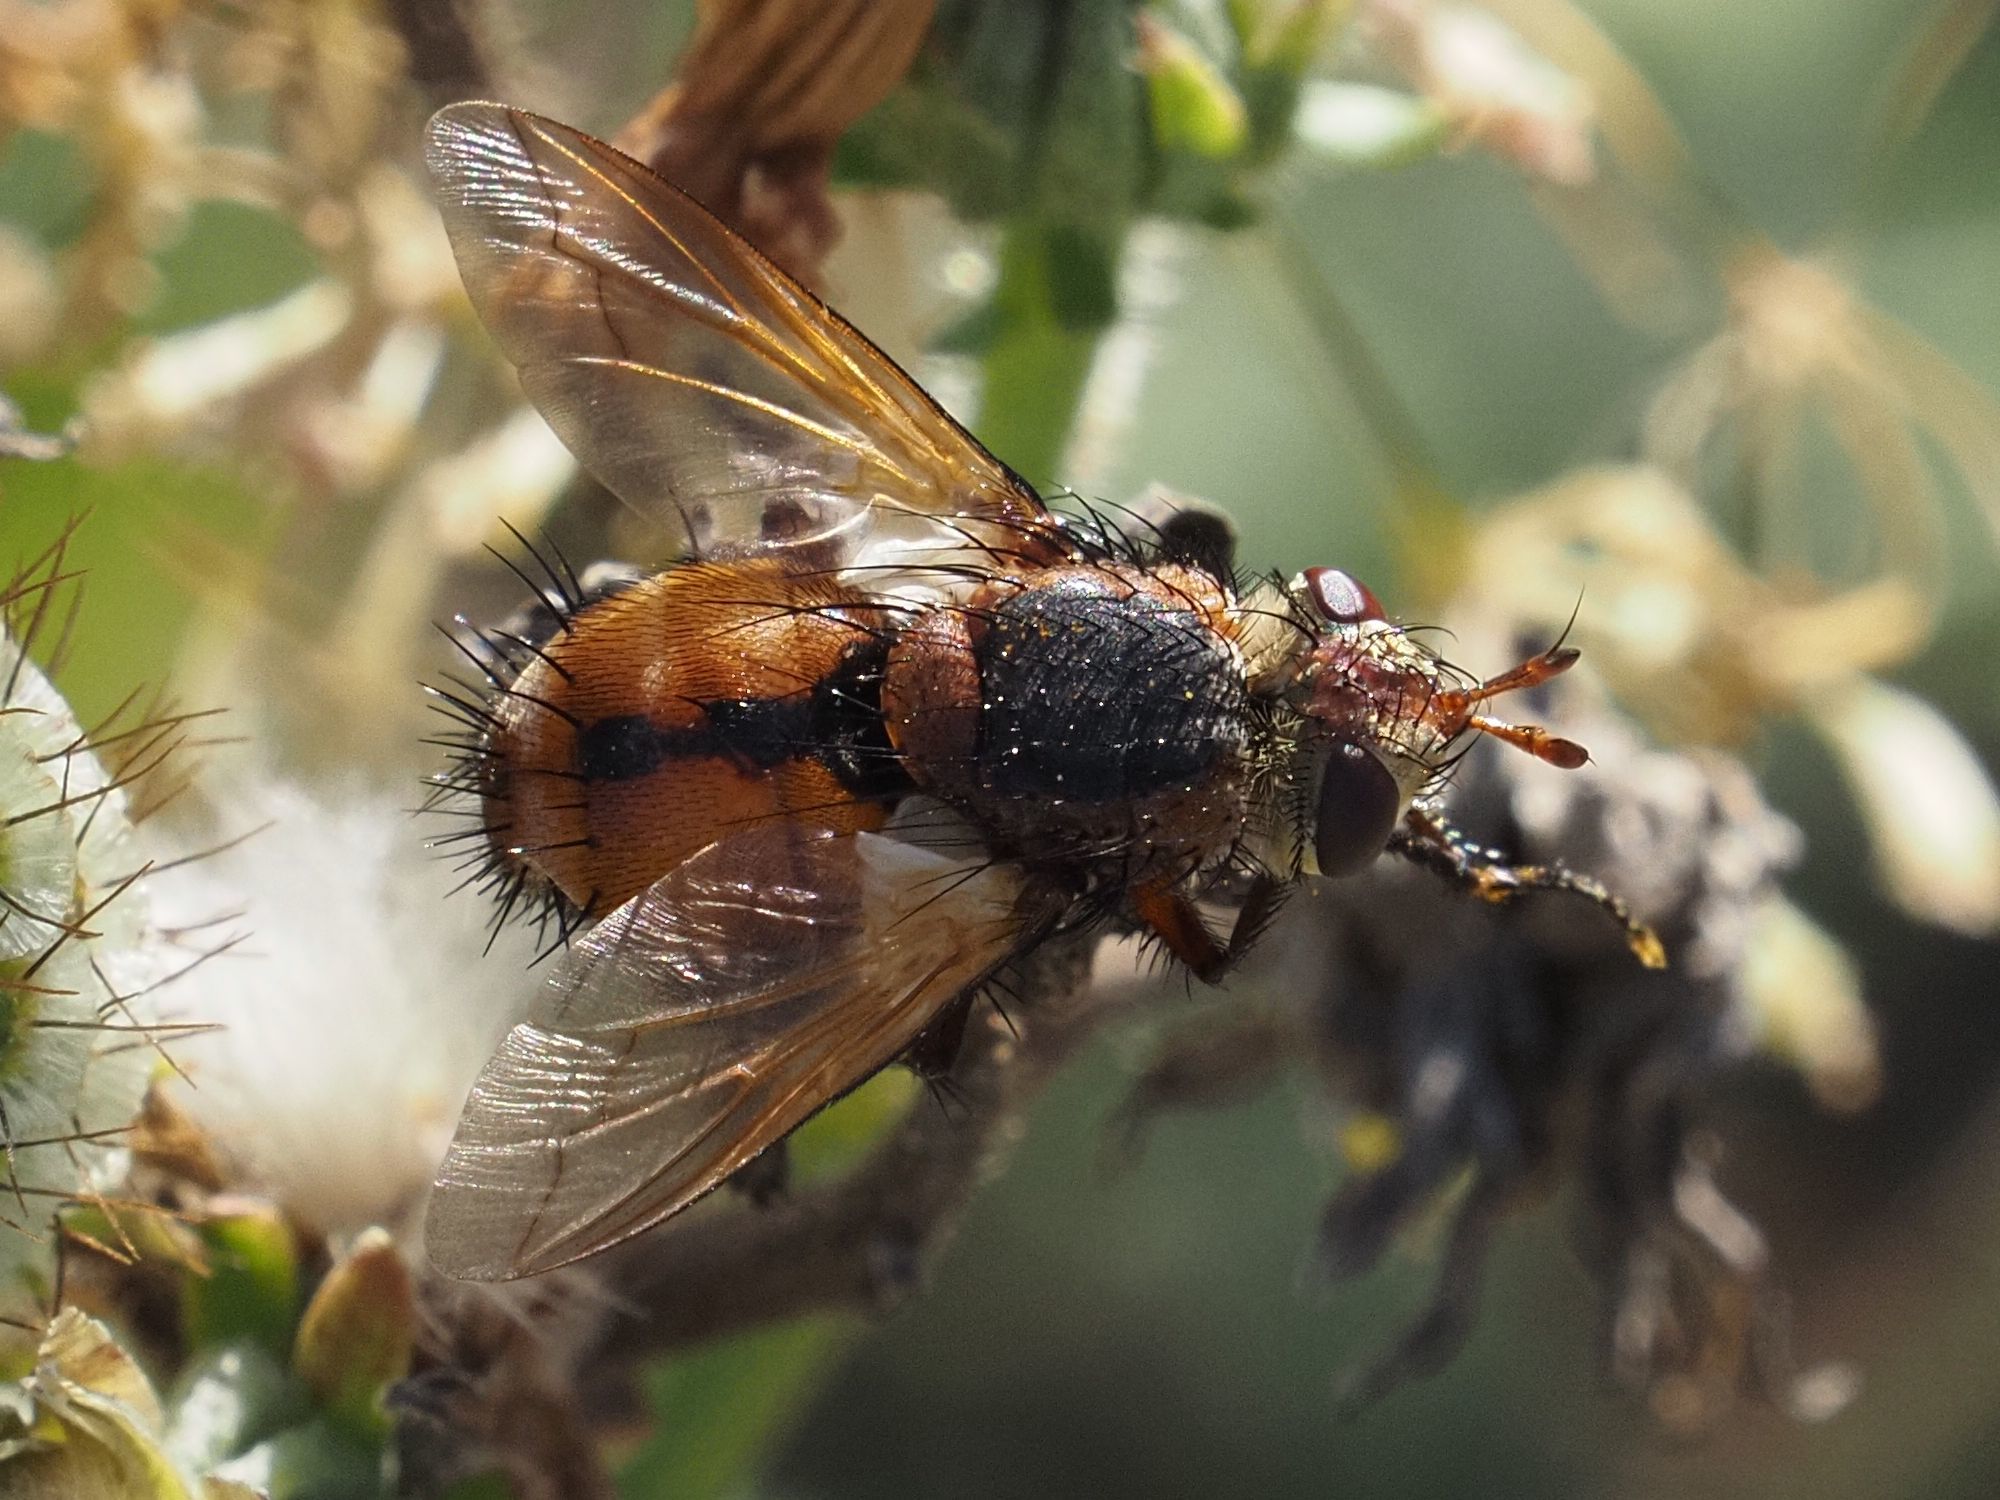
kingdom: Animalia
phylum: Arthropoda
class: Insecta
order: Diptera
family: Tachinidae
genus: Tachina
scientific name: Tachina fera
